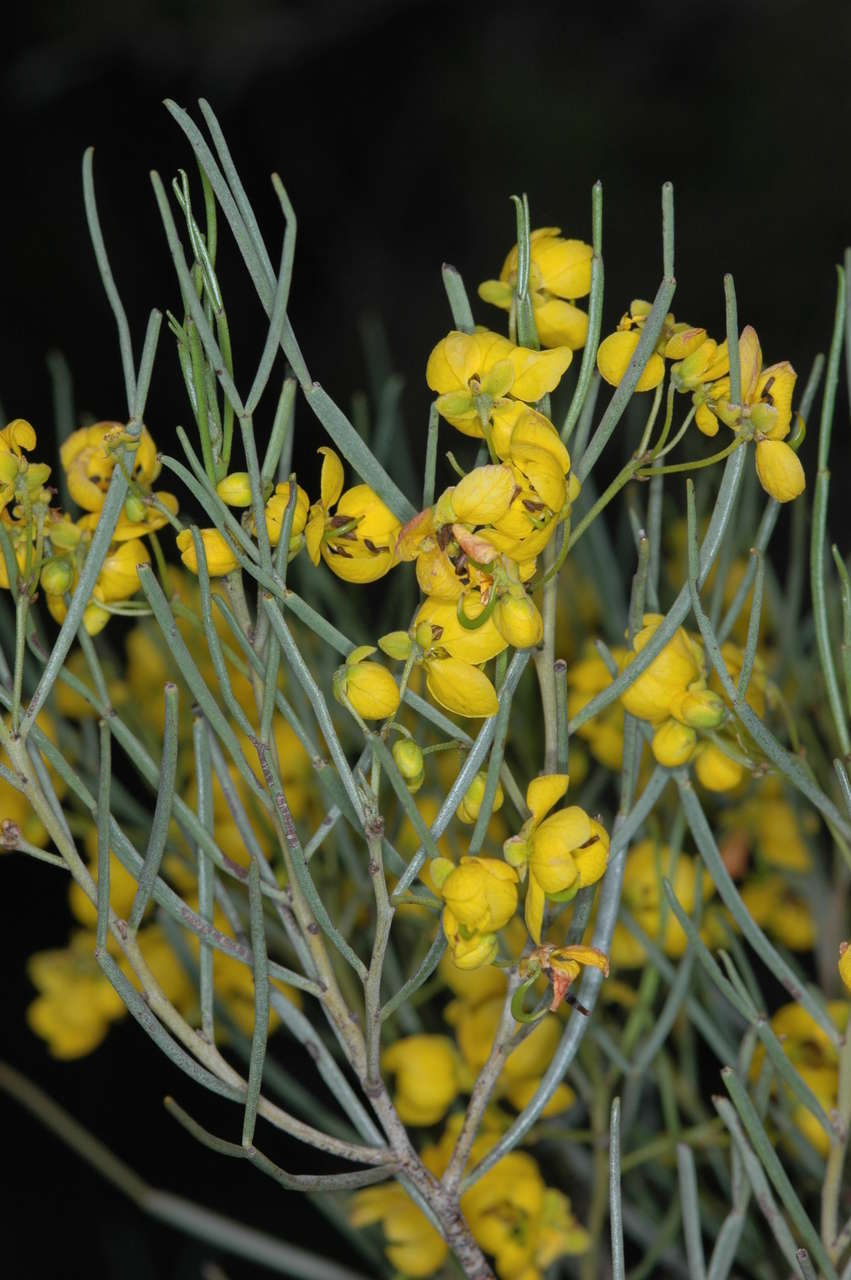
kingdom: Plantae
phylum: Tracheophyta
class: Magnoliopsida
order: Fabales
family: Fabaceae
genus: Senna
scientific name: Senna artemisioides
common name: Burnt-leaved acacia
